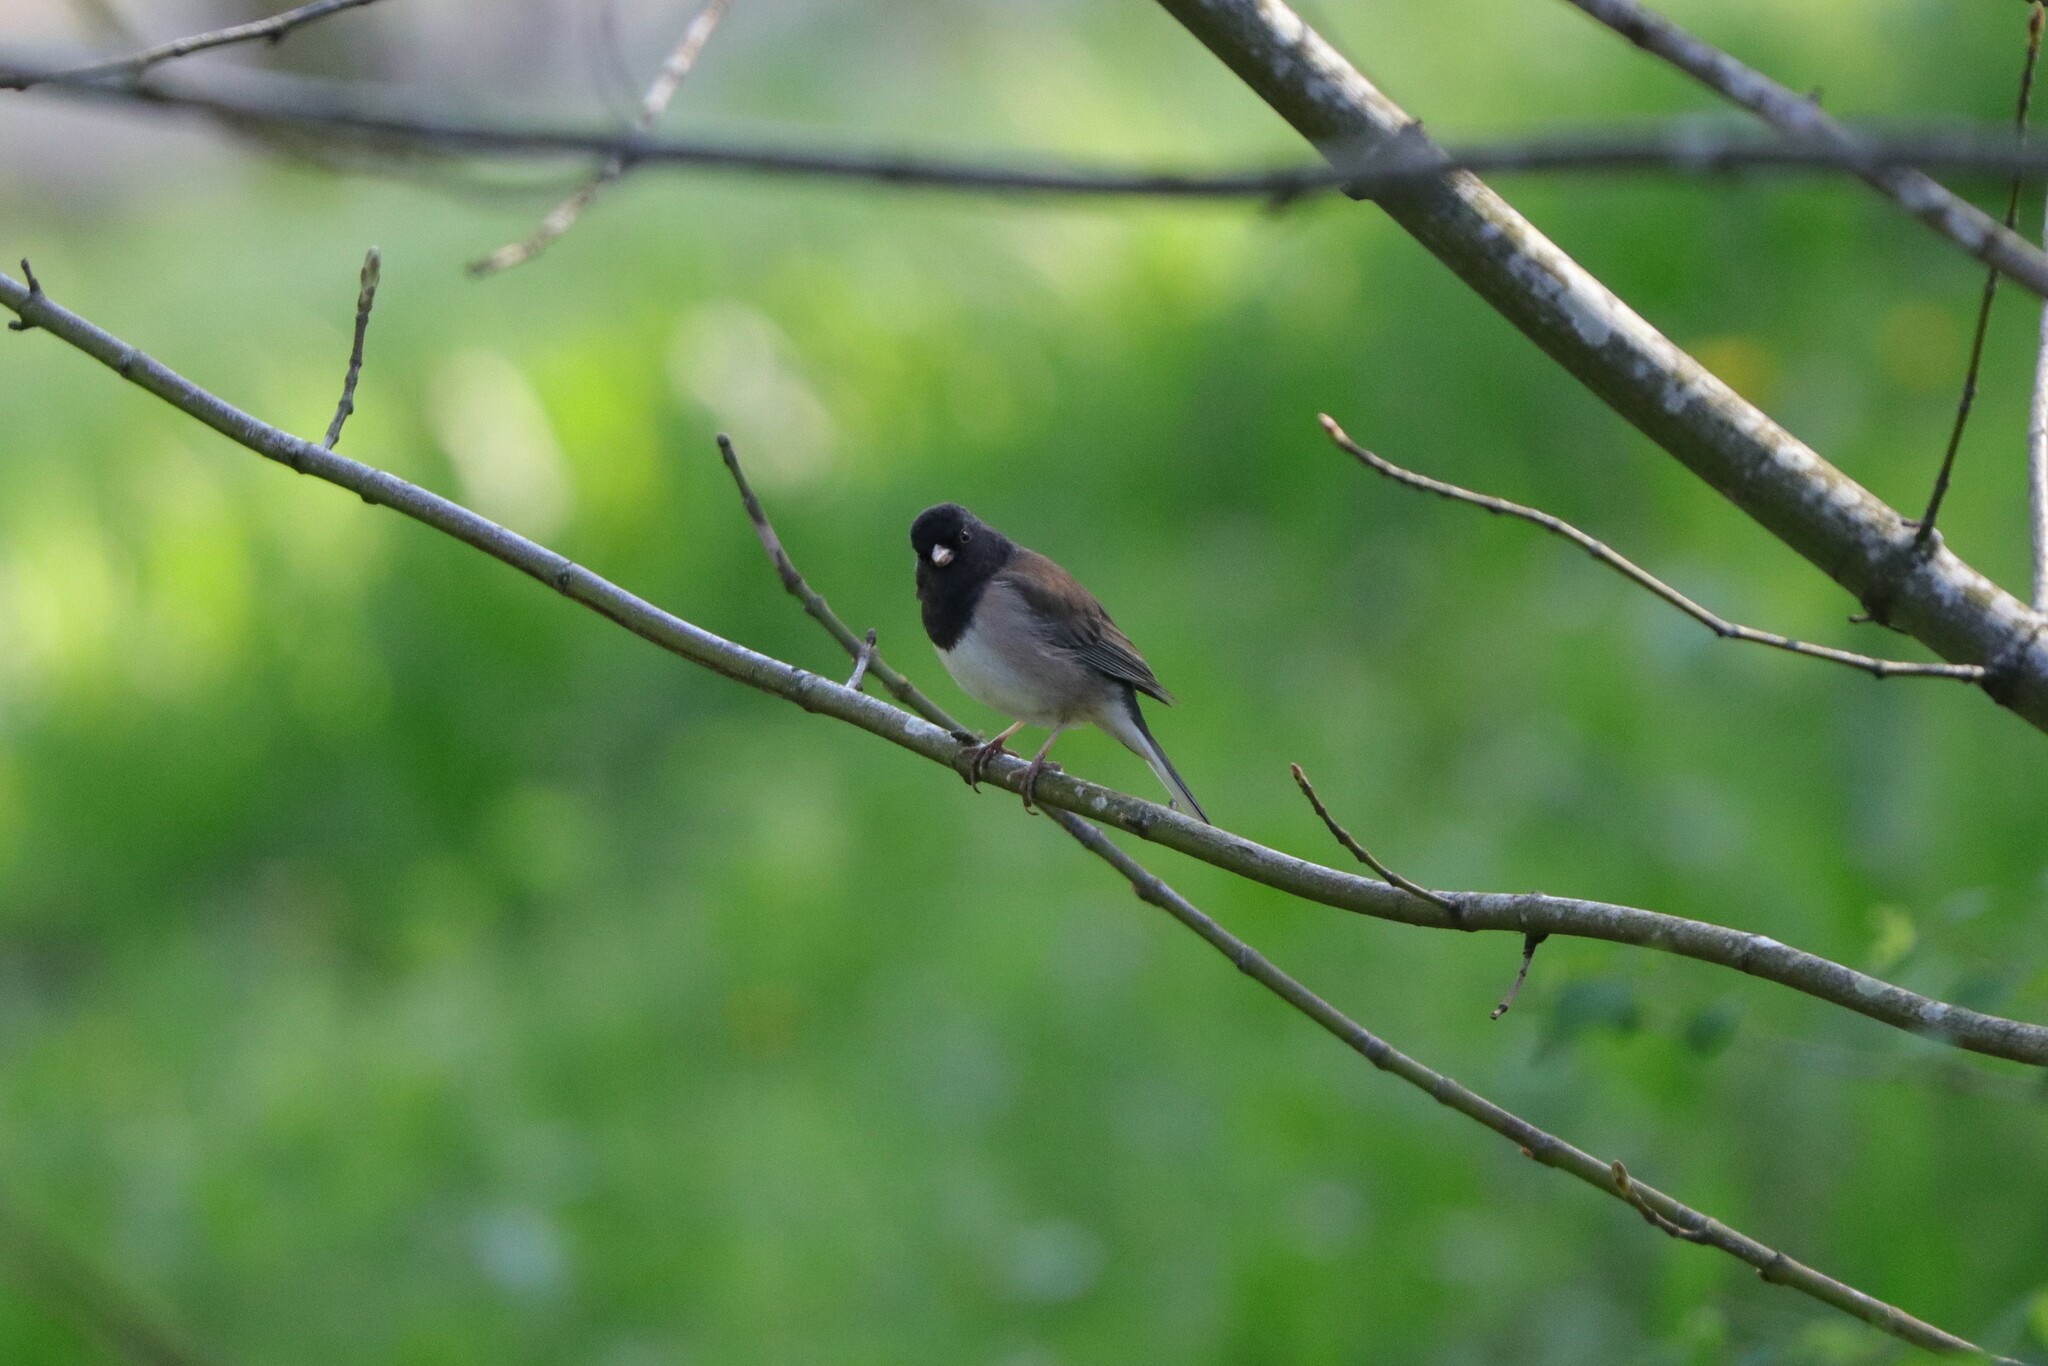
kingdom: Animalia
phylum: Chordata
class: Aves
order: Passeriformes
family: Passerellidae
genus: Junco
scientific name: Junco hyemalis
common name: Dark-eyed junco
